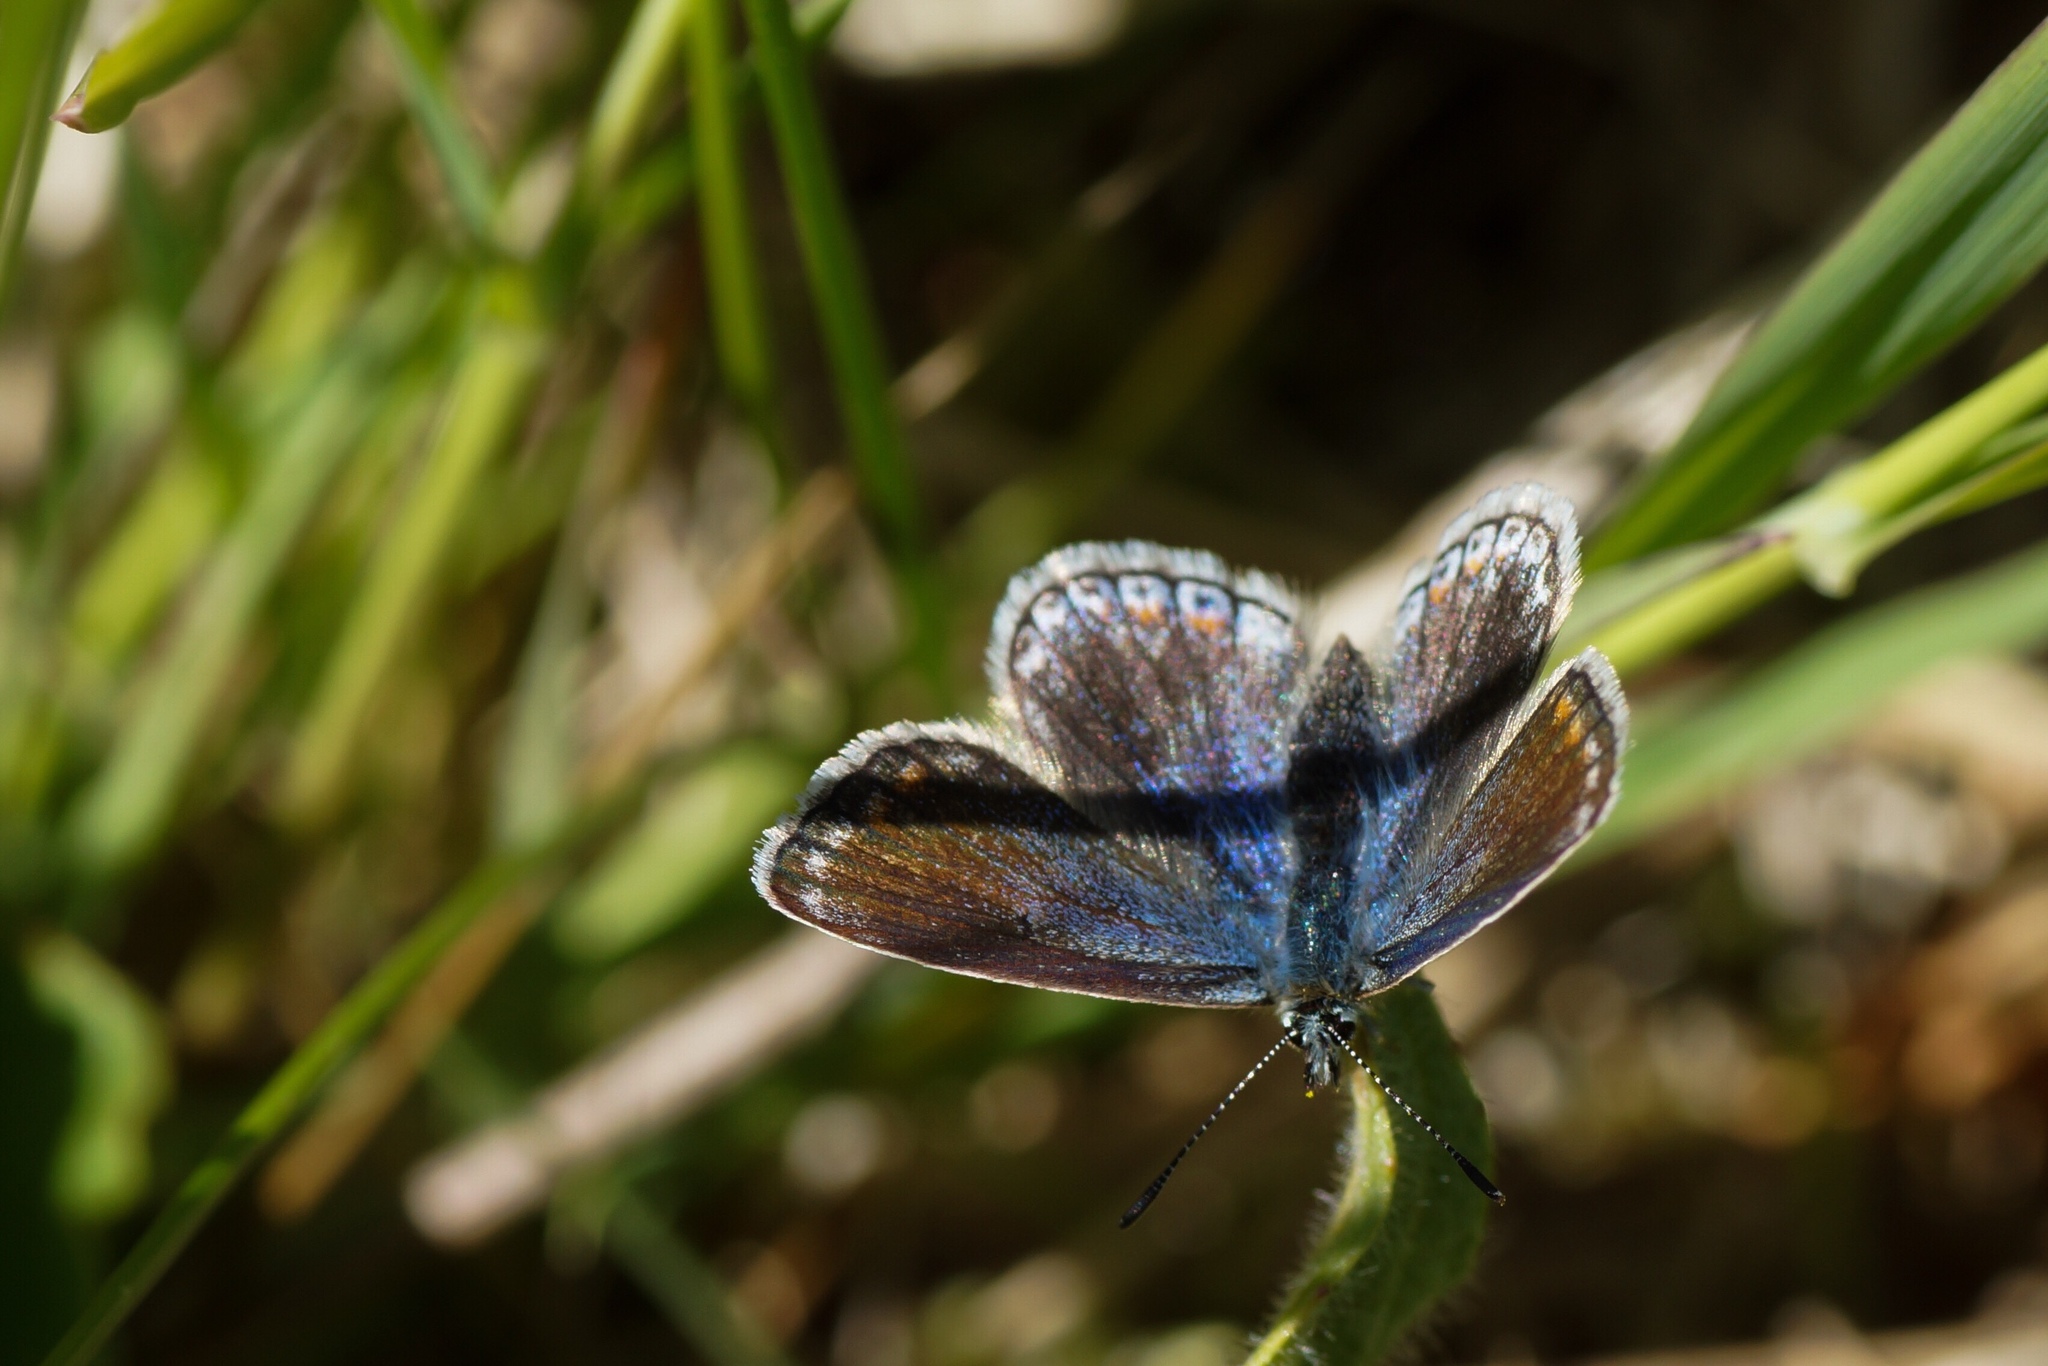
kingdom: Animalia
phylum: Arthropoda
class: Insecta
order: Lepidoptera
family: Lycaenidae
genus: Polyommatus
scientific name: Polyommatus icarus
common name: Common blue
